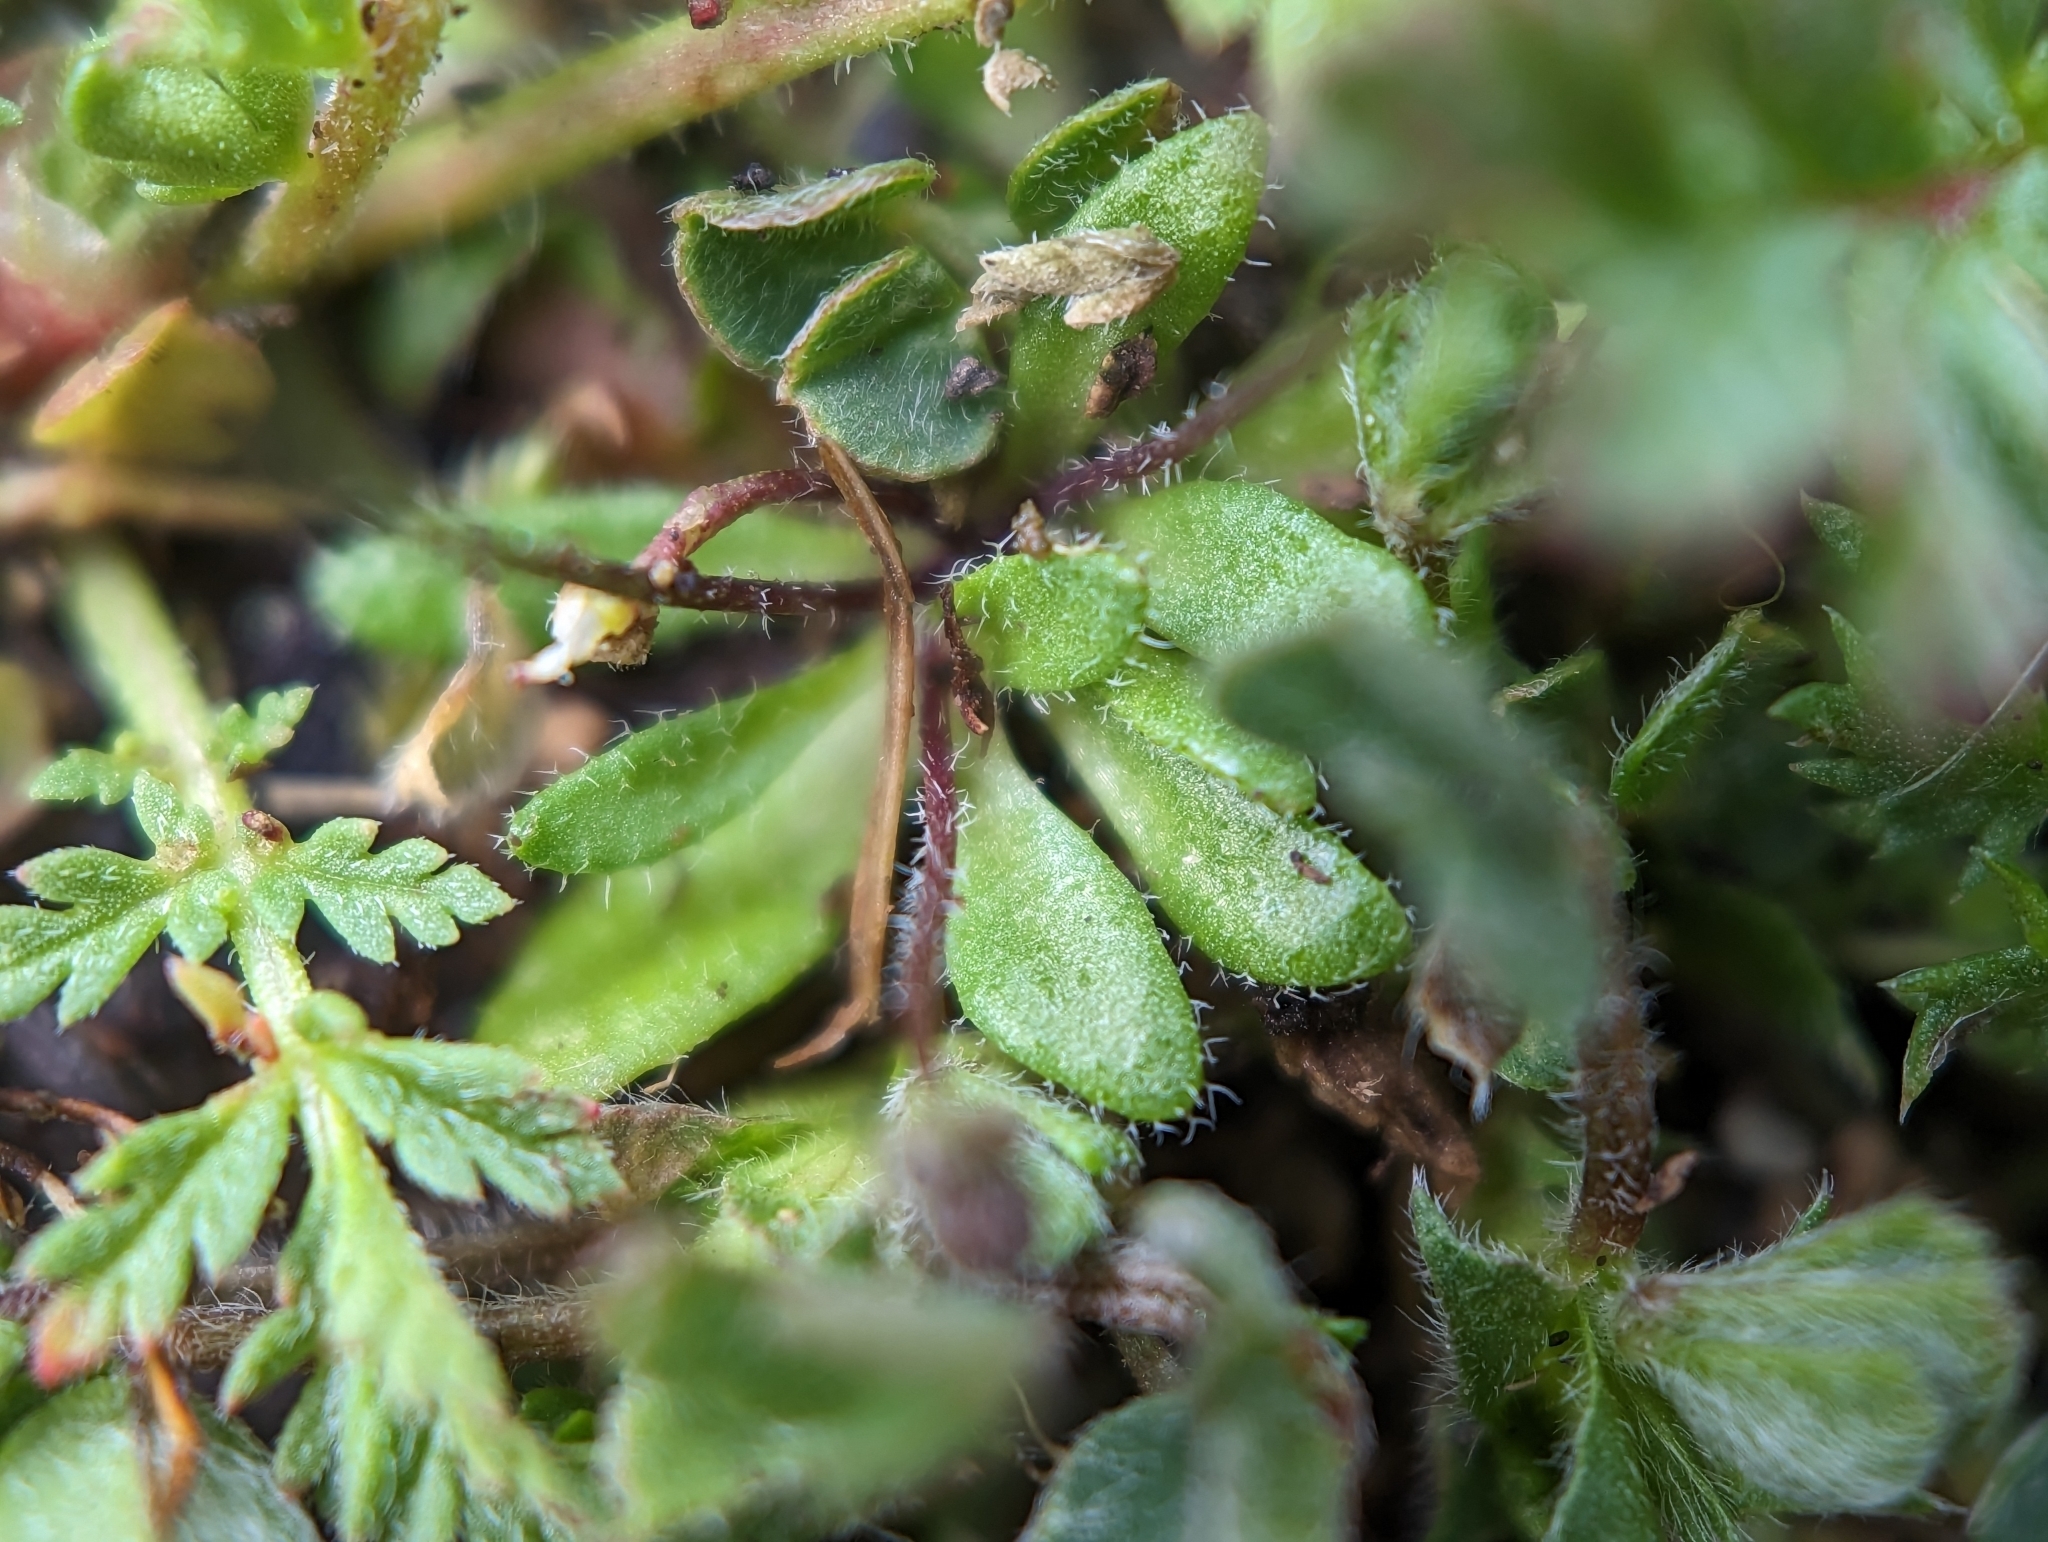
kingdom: Plantae
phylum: Tracheophyta
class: Magnoliopsida
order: Brassicales
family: Brassicaceae
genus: Draba
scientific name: Draba verna
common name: Spring draba
